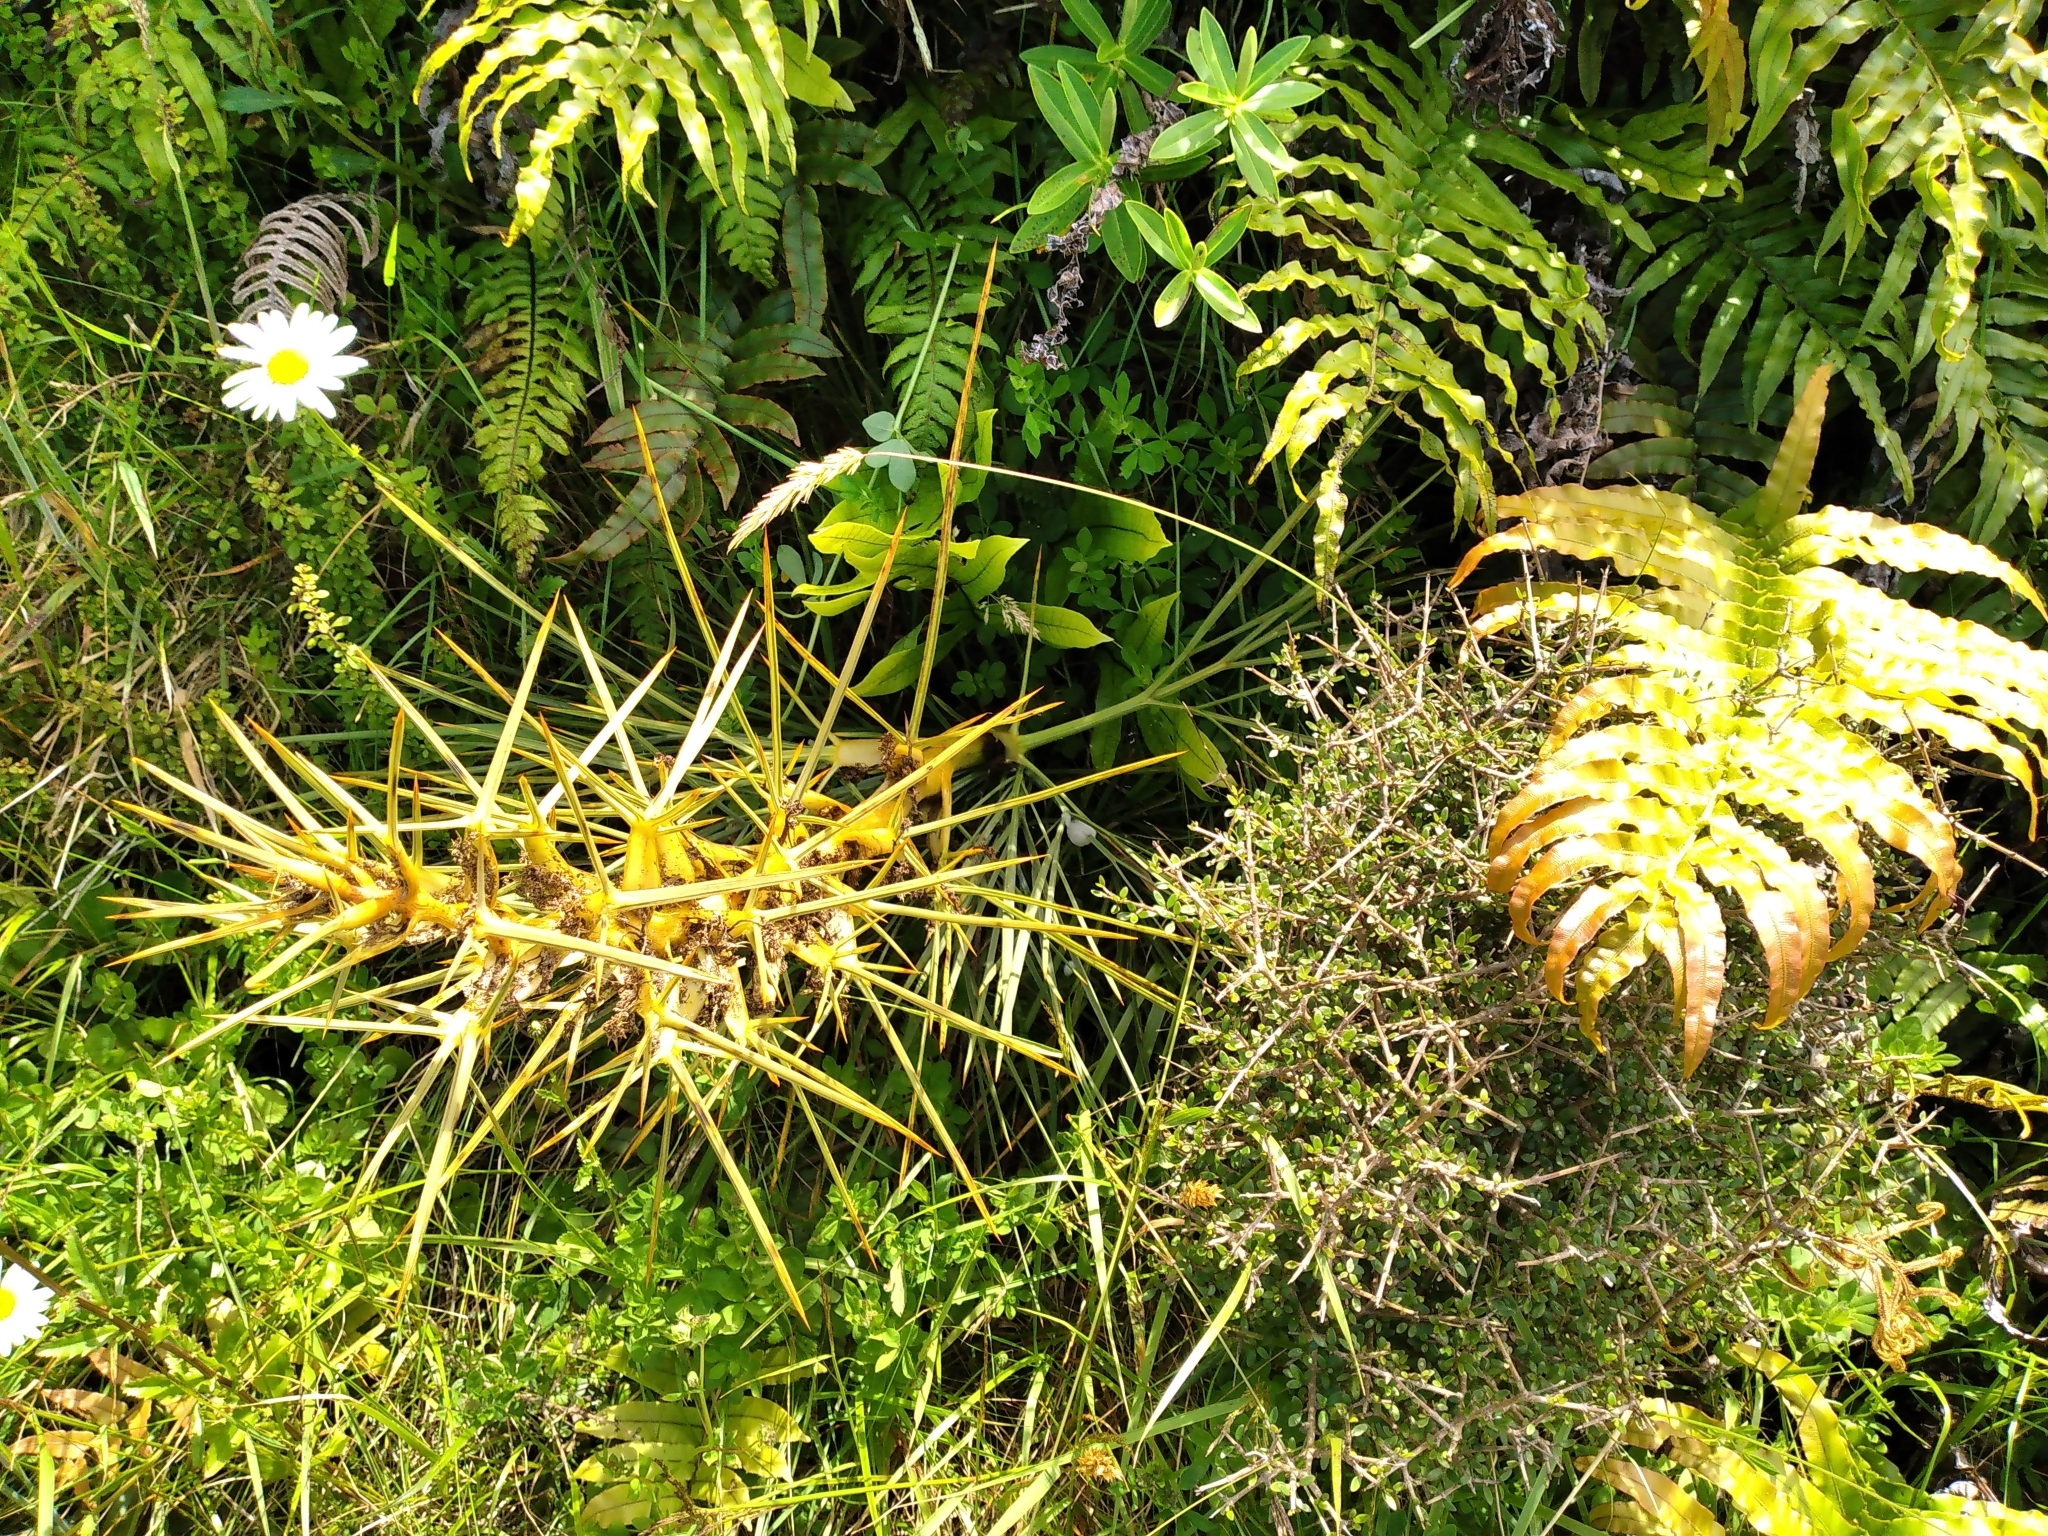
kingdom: Plantae
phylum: Tracheophyta
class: Magnoliopsida
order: Apiales
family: Apiaceae
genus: Aciphylla
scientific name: Aciphylla squarrosa
